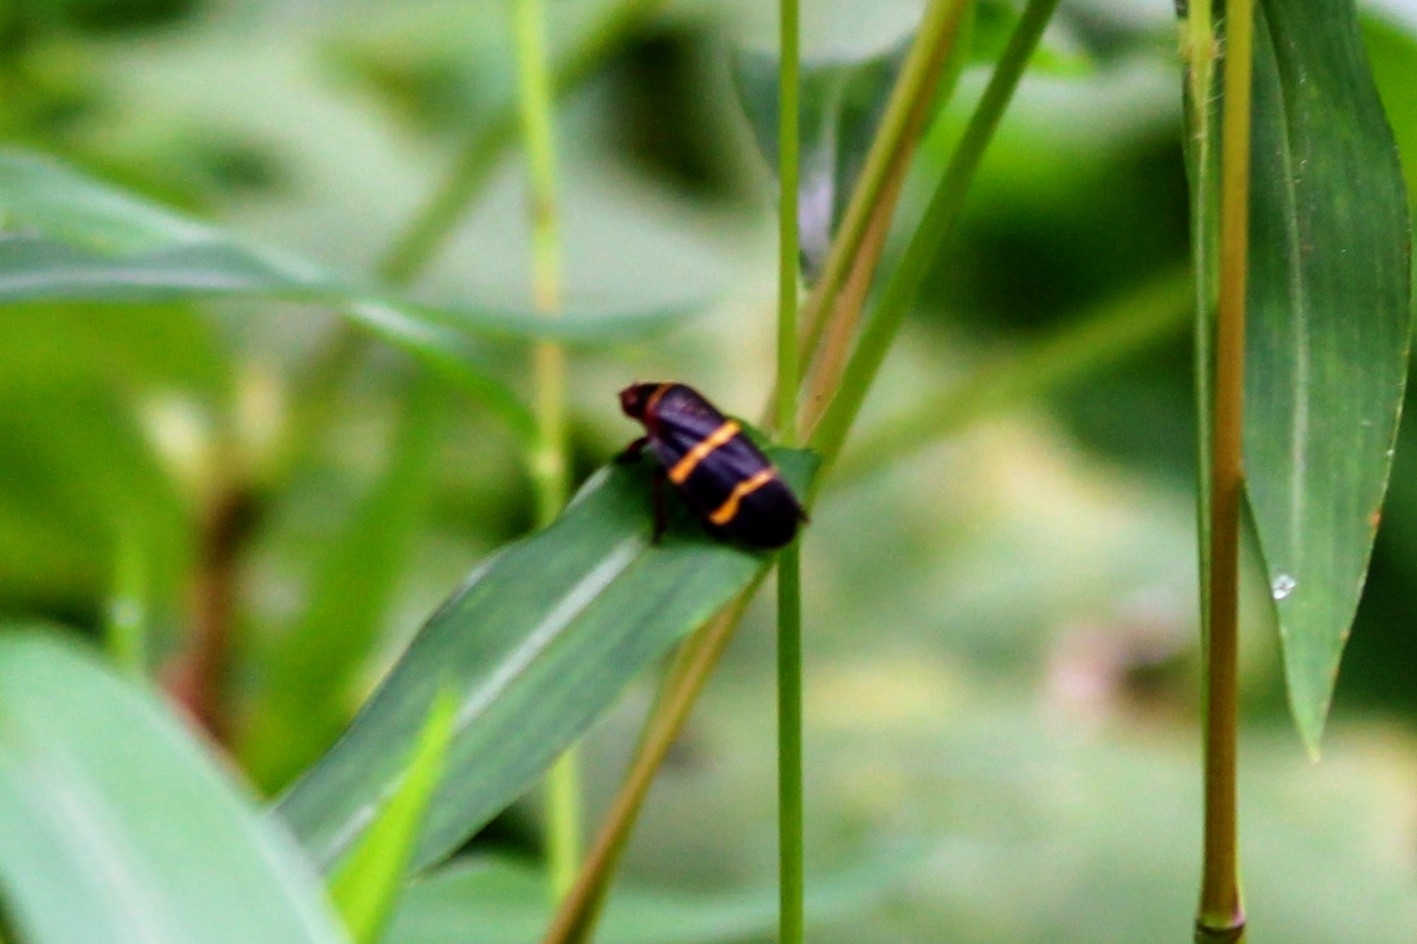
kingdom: Animalia
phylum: Arthropoda
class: Insecta
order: Hemiptera
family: Cercopidae
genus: Prosapia
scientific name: Prosapia bicincta
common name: Twolined spittlebug
